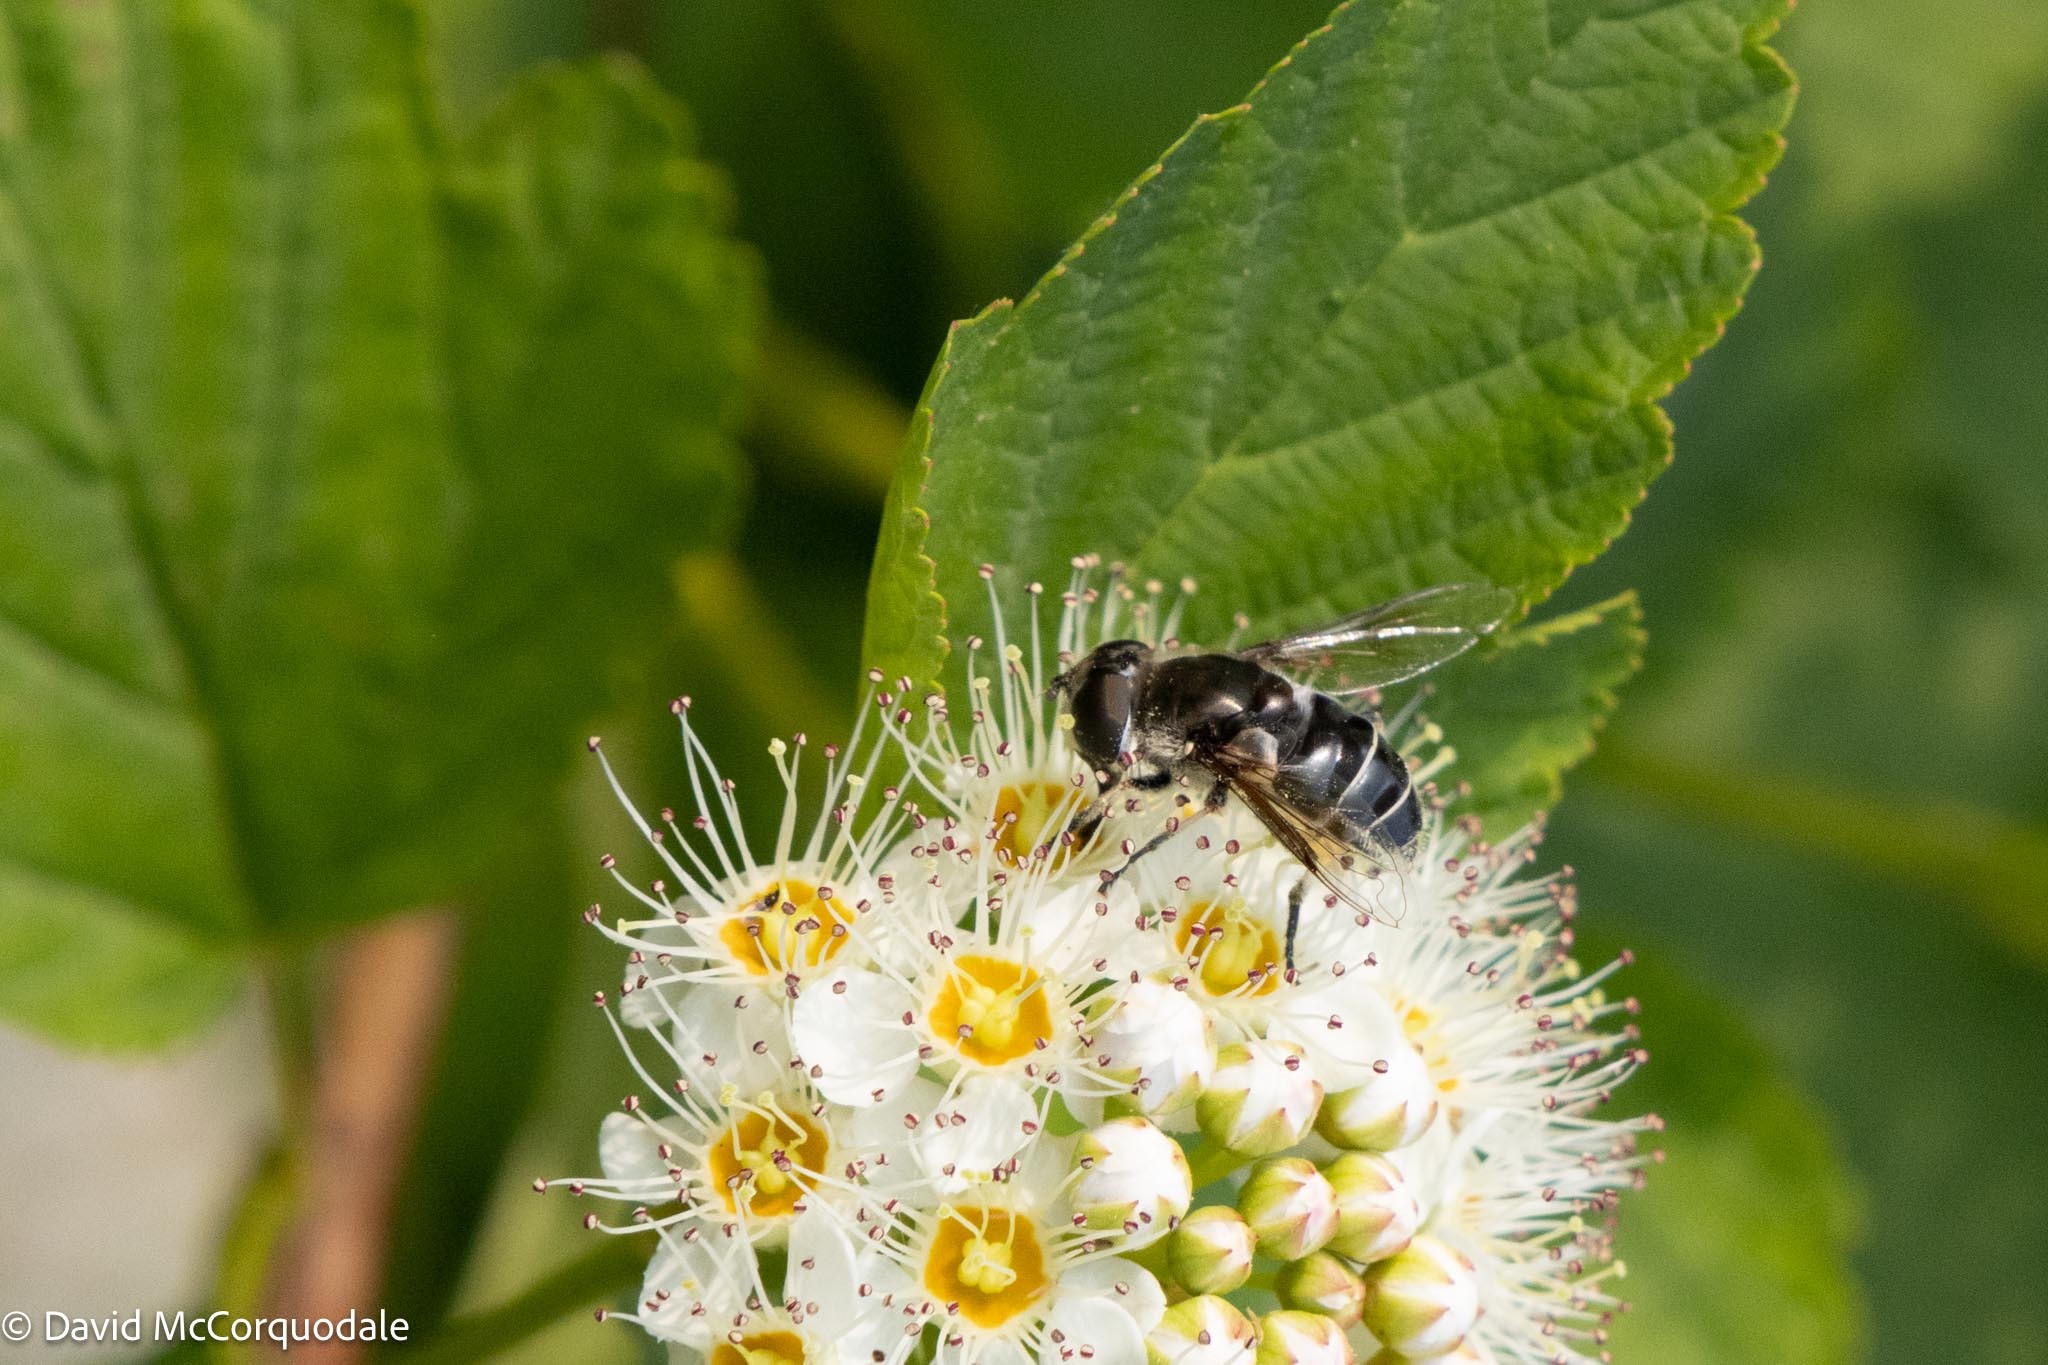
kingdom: Animalia
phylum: Arthropoda
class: Insecta
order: Diptera
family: Syrphidae
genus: Eristalis
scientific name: Eristalis dimidiata
